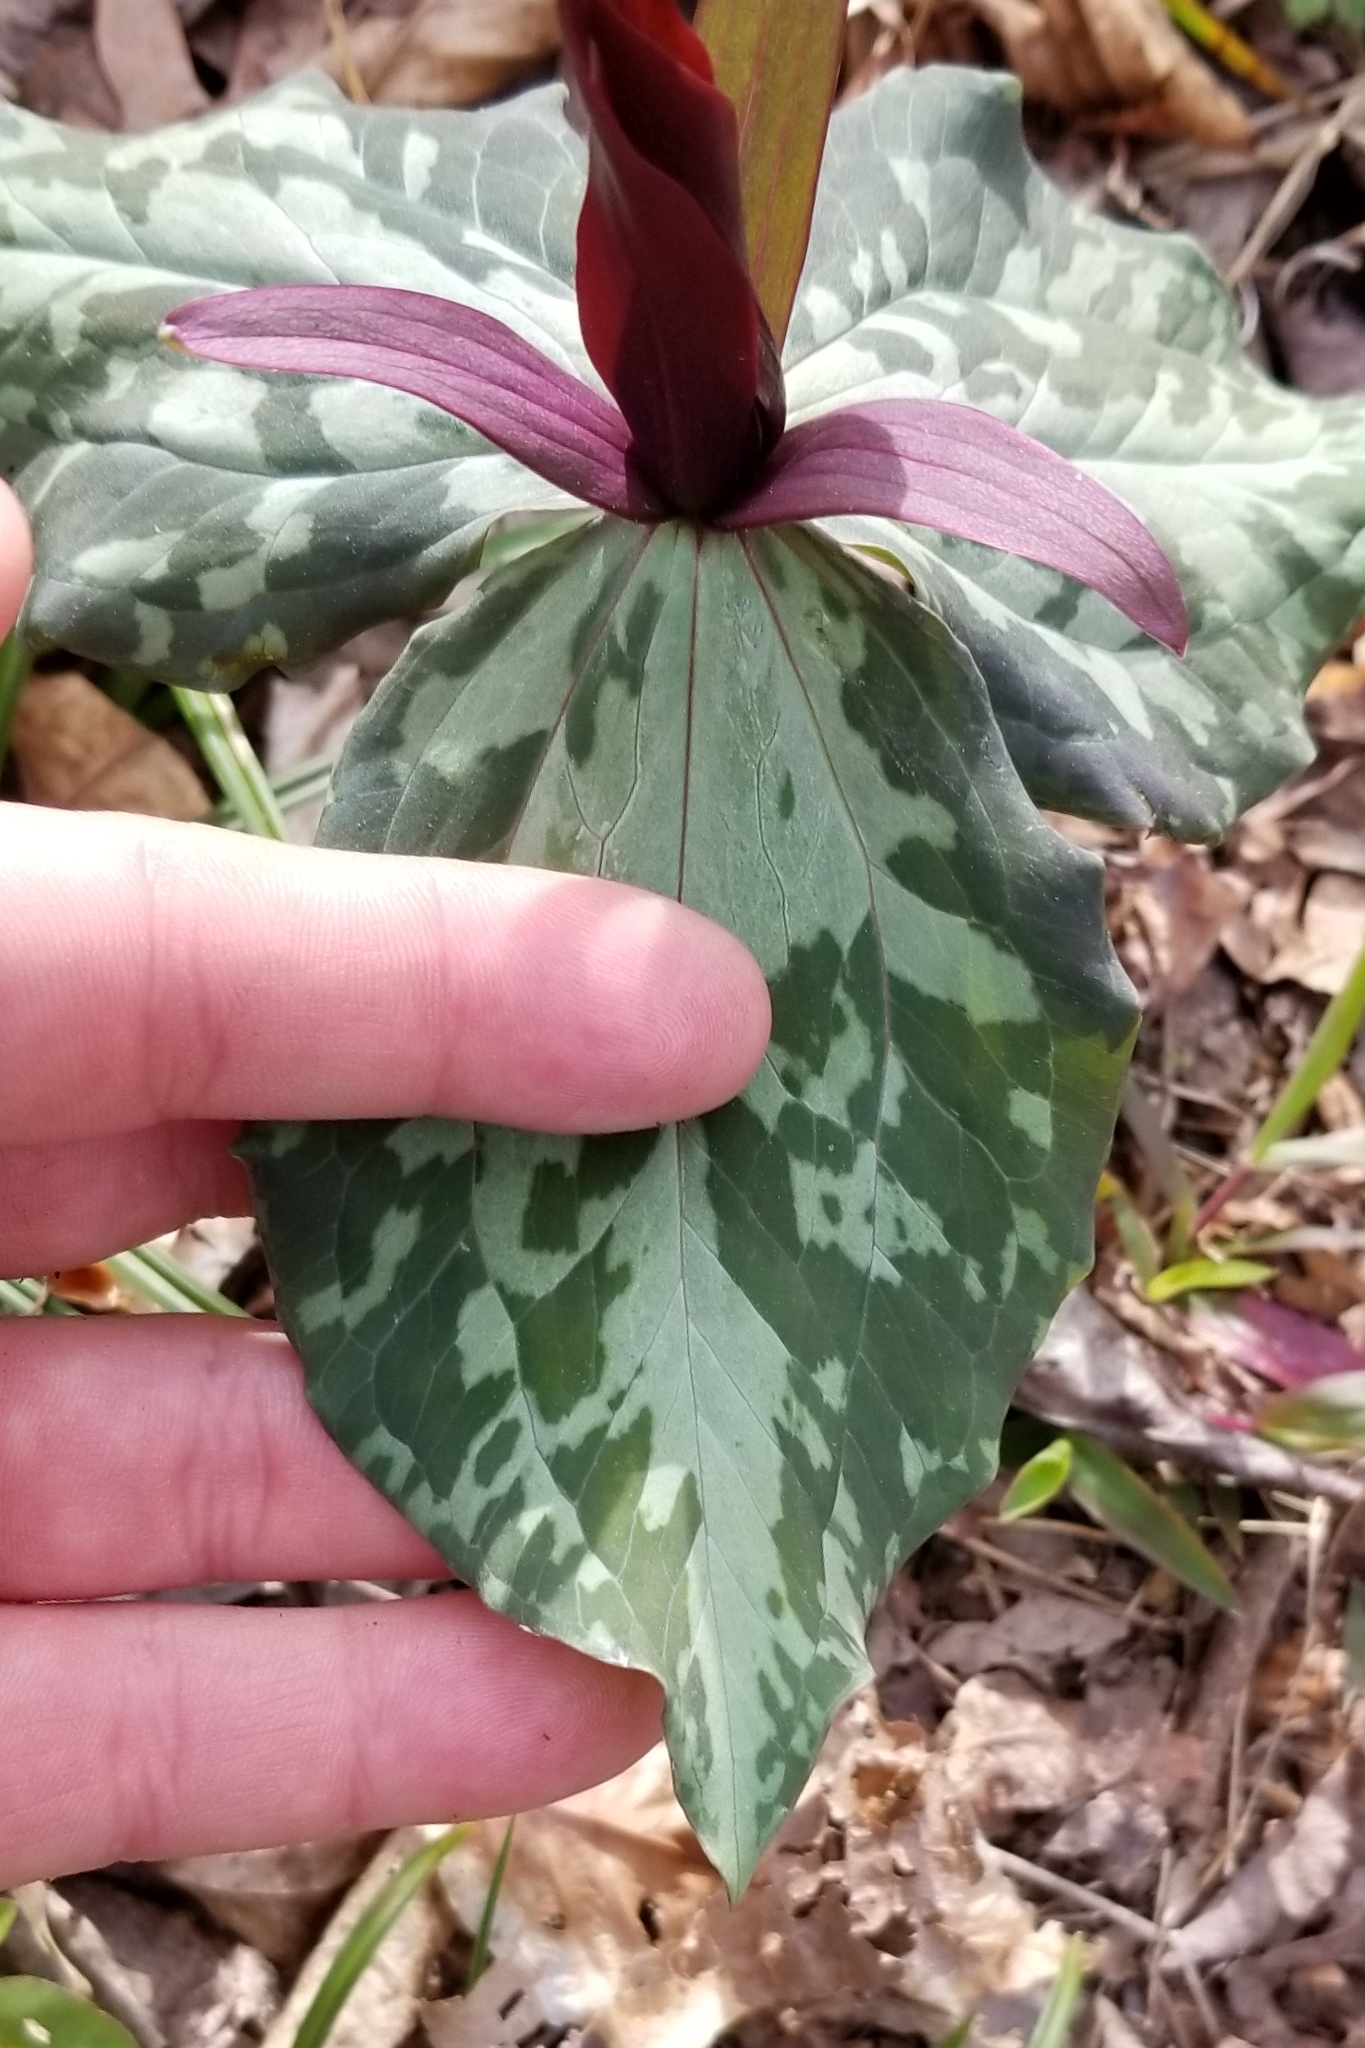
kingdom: Plantae
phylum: Tracheophyta
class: Liliopsida
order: Liliales
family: Melanthiaceae
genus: Trillium
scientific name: Trillium cuneatum
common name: Cuneate trillium
